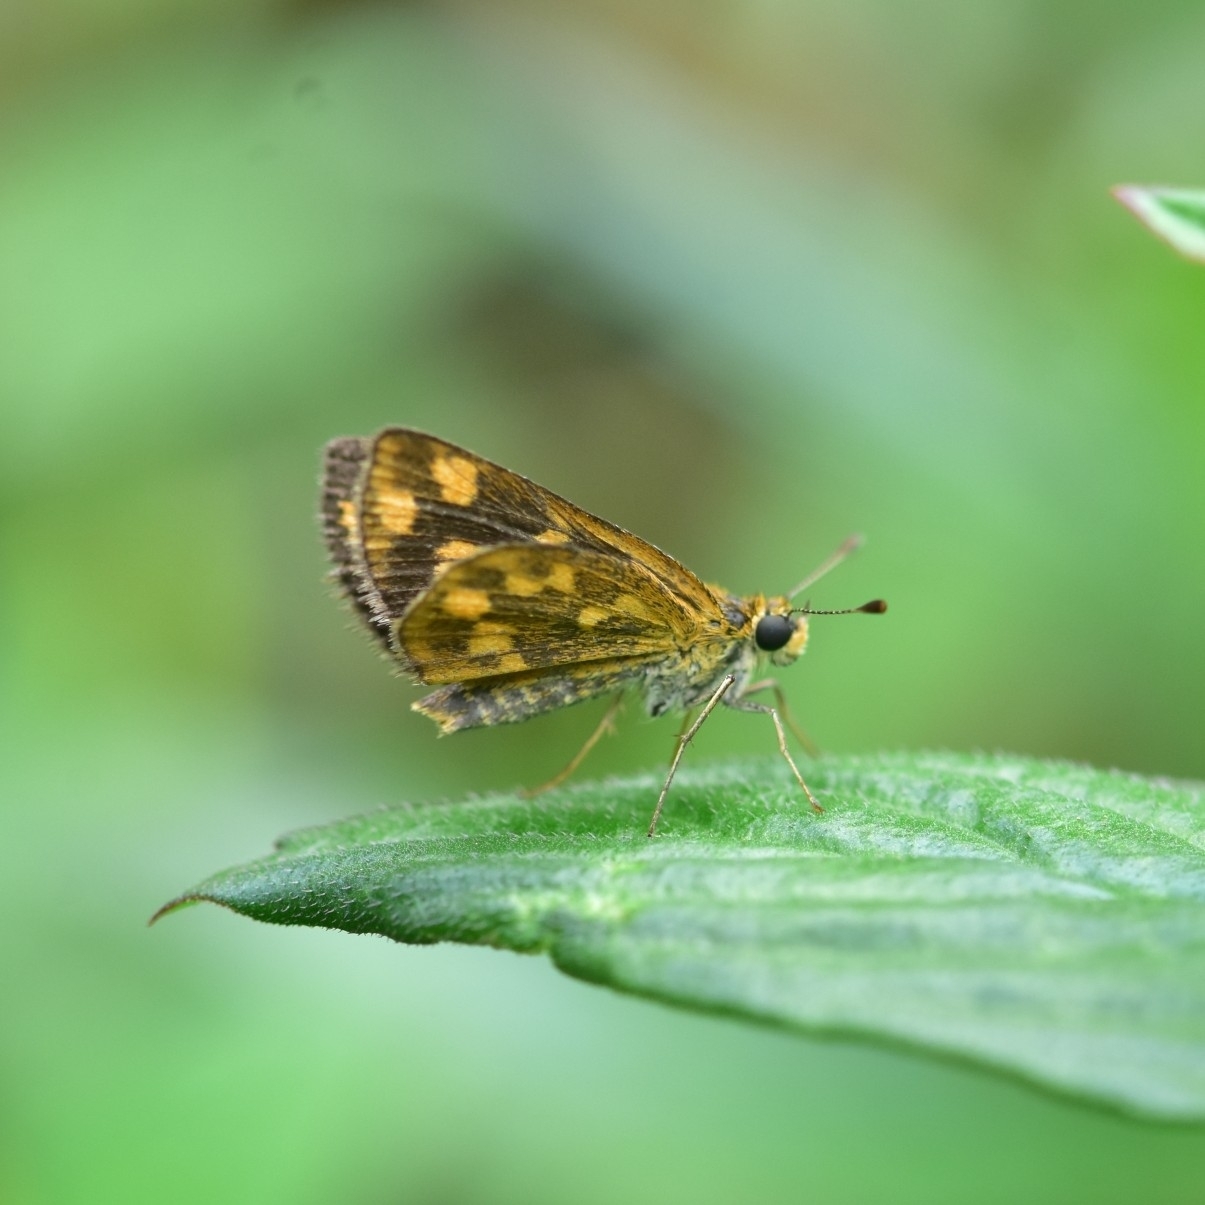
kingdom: Animalia
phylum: Arthropoda
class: Insecta
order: Lepidoptera
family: Hesperiidae
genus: Taractrocera
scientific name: Taractrocera ceramas
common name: Tamil grass dart
